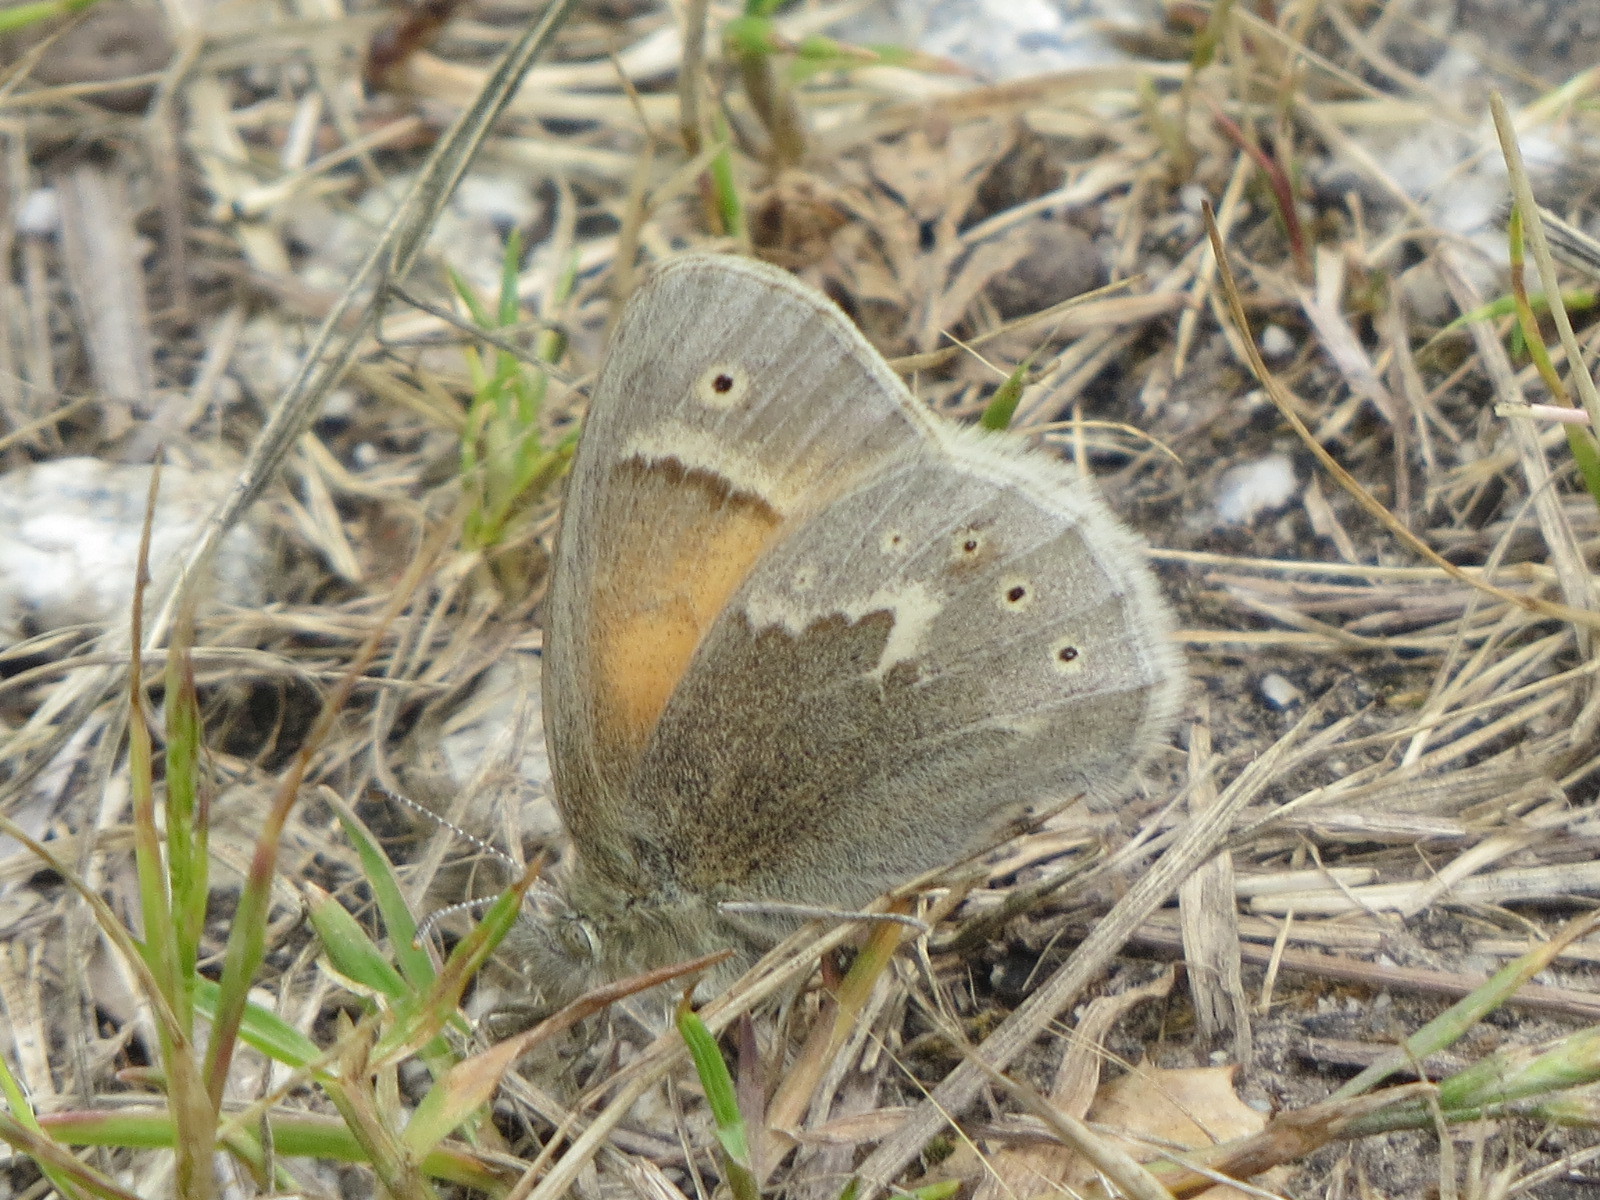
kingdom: Animalia
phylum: Arthropoda
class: Insecta
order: Lepidoptera
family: Nymphalidae
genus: Coenonympha
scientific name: Coenonympha california
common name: Common ringlet
